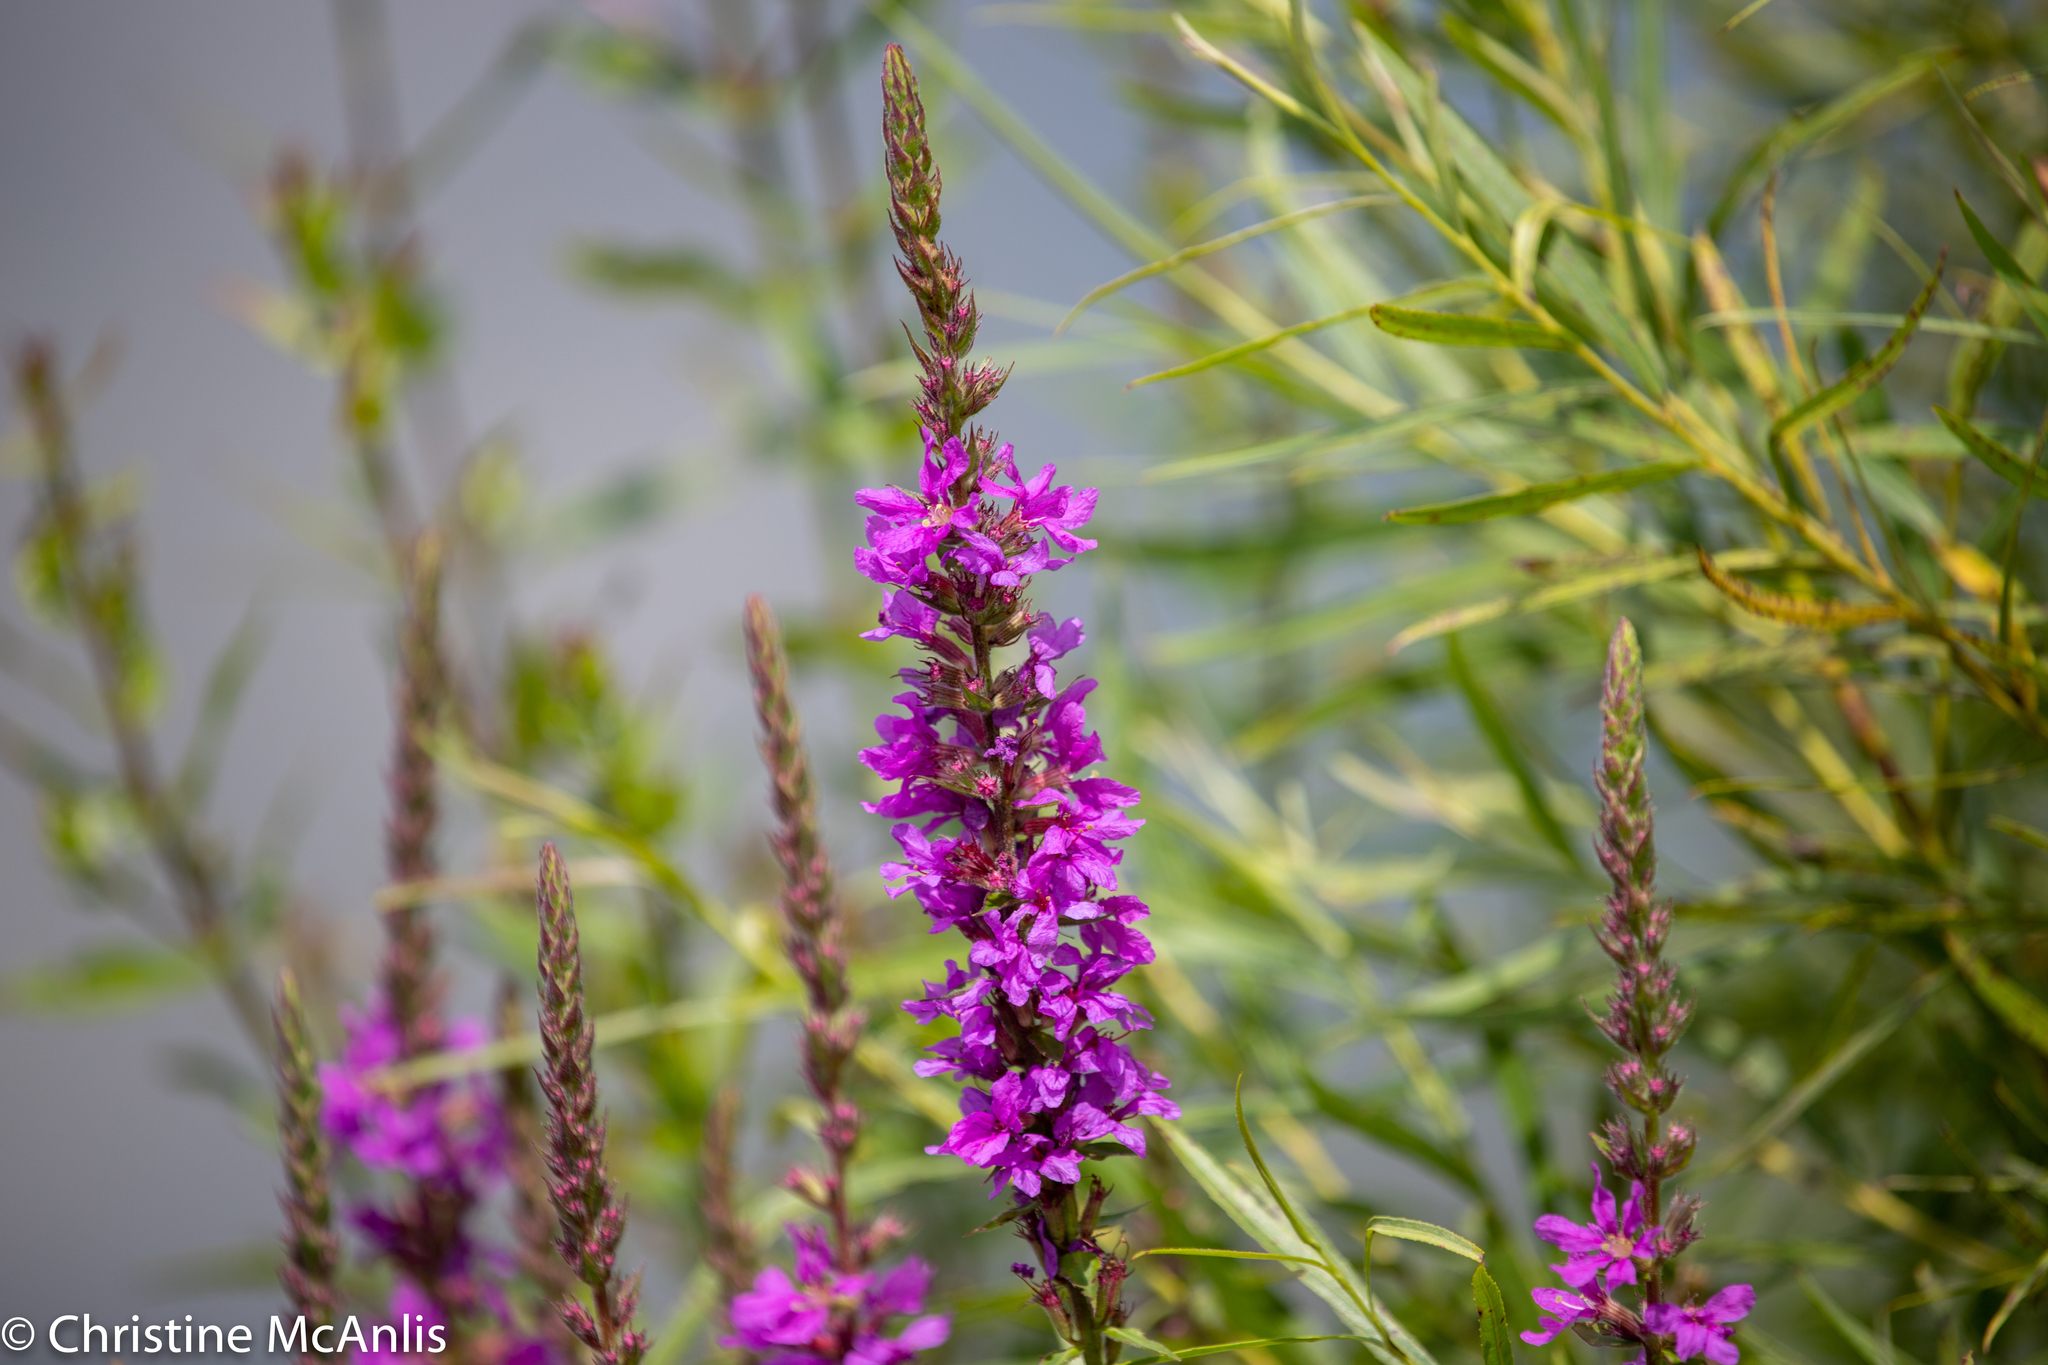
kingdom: Plantae
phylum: Tracheophyta
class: Magnoliopsida
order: Myrtales
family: Lythraceae
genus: Lythrum
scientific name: Lythrum salicaria
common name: Purple loosestrife
